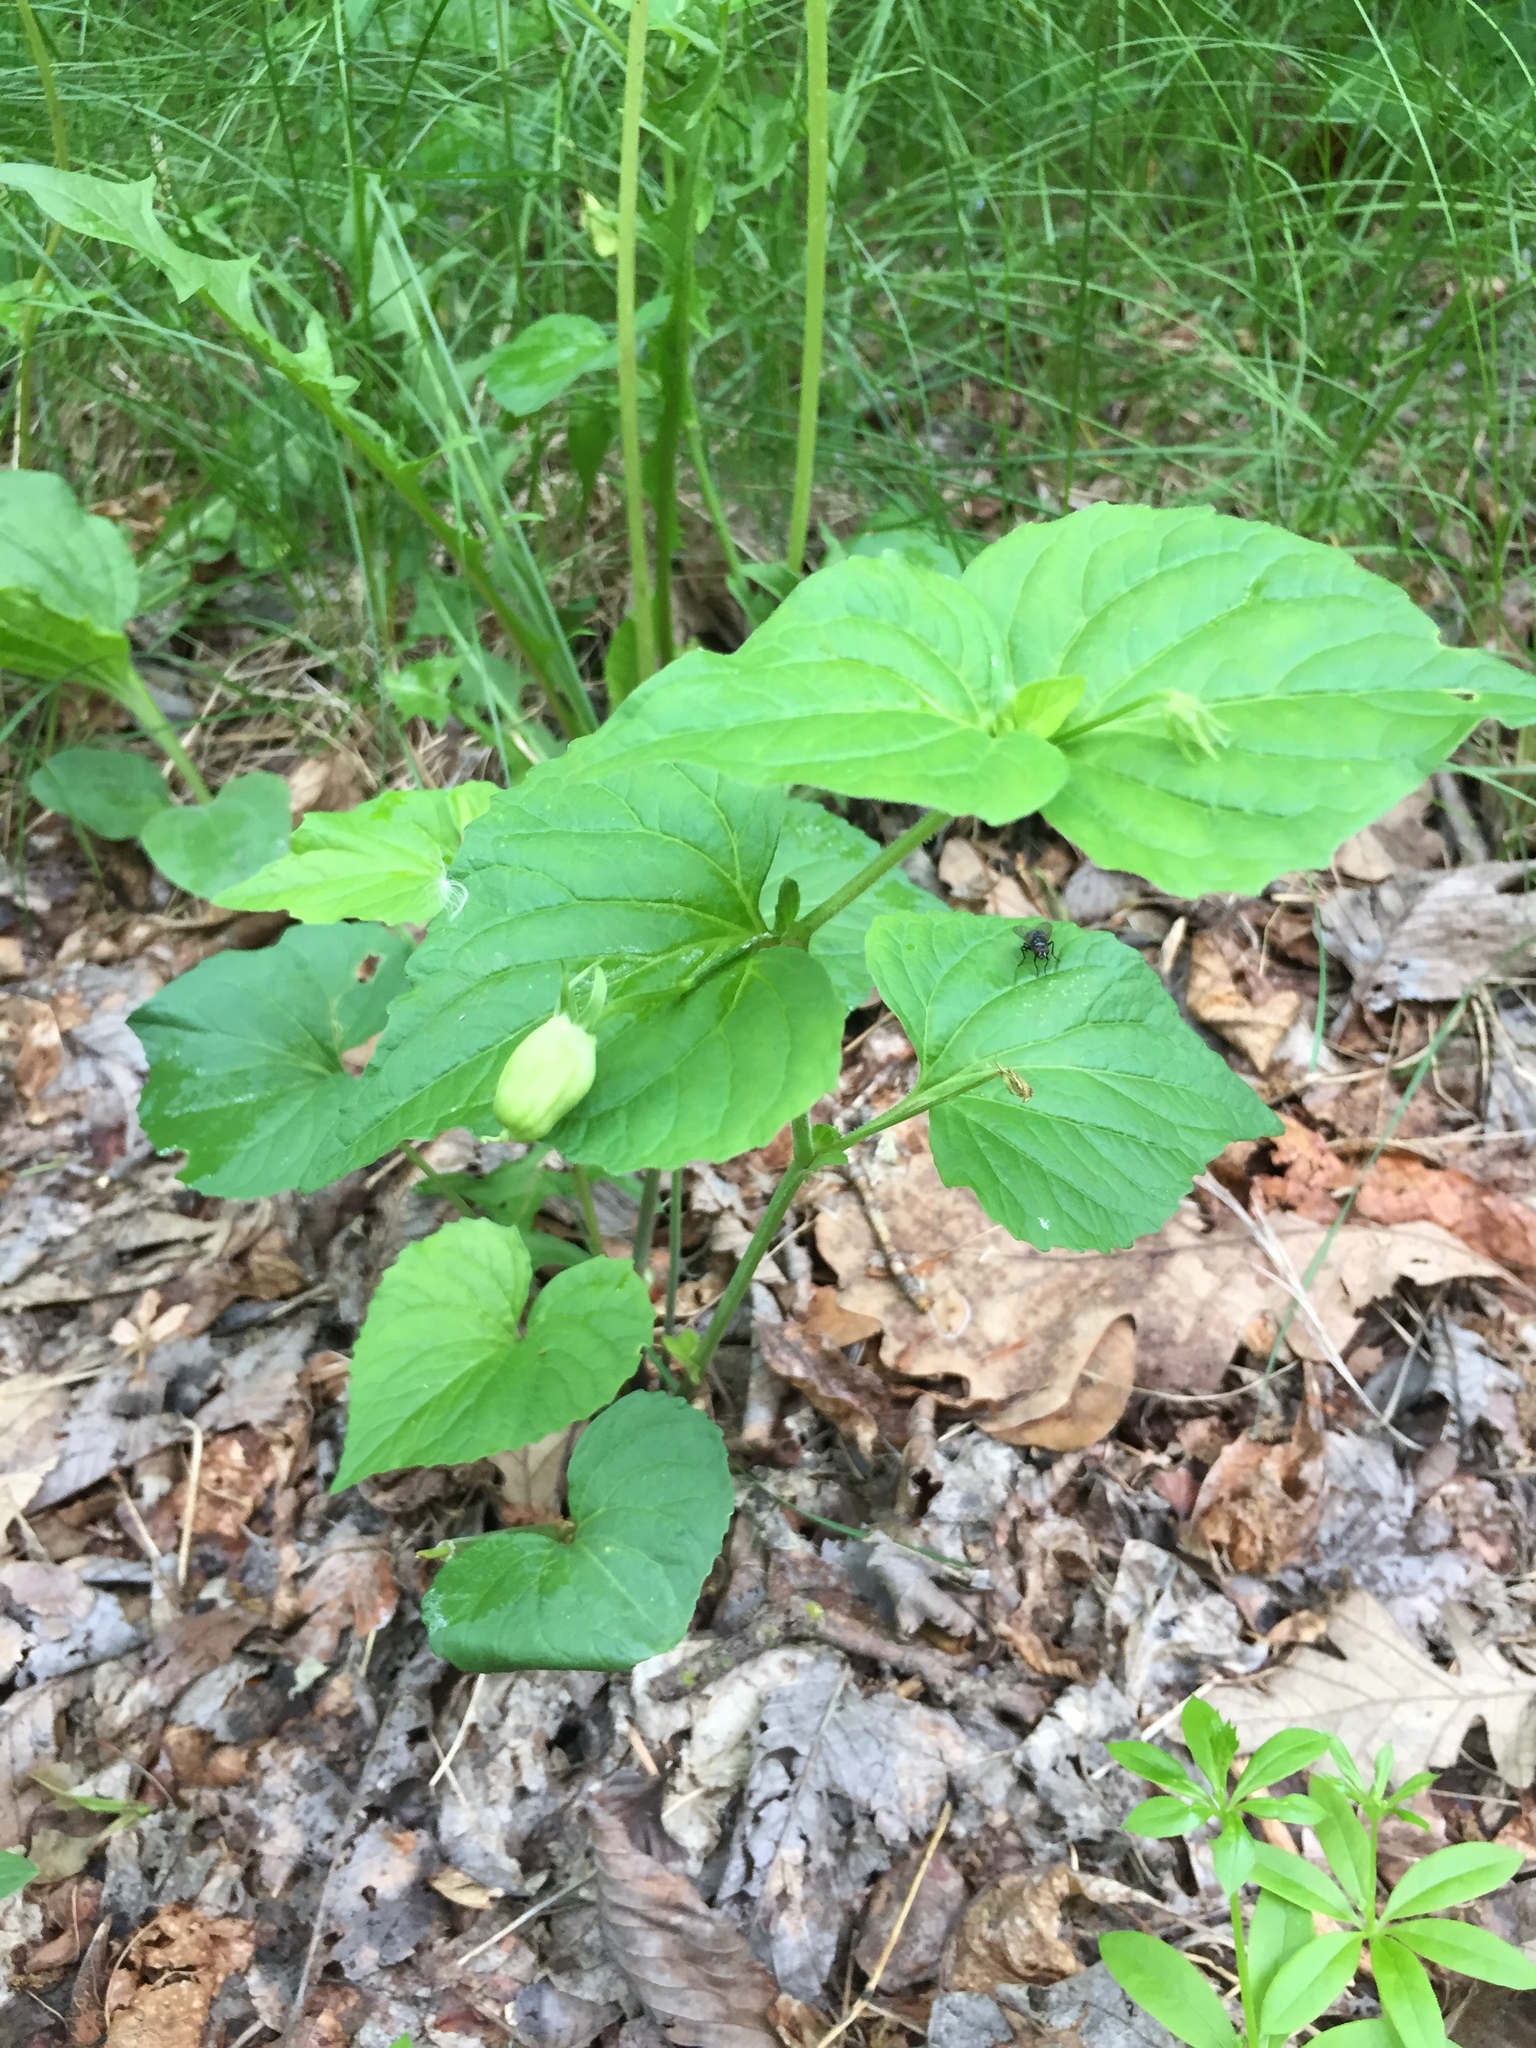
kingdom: Plantae
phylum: Tracheophyta
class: Magnoliopsida
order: Malpighiales
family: Violaceae
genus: Viola
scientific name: Viola eriocarpa
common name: Smooth yellow violet
